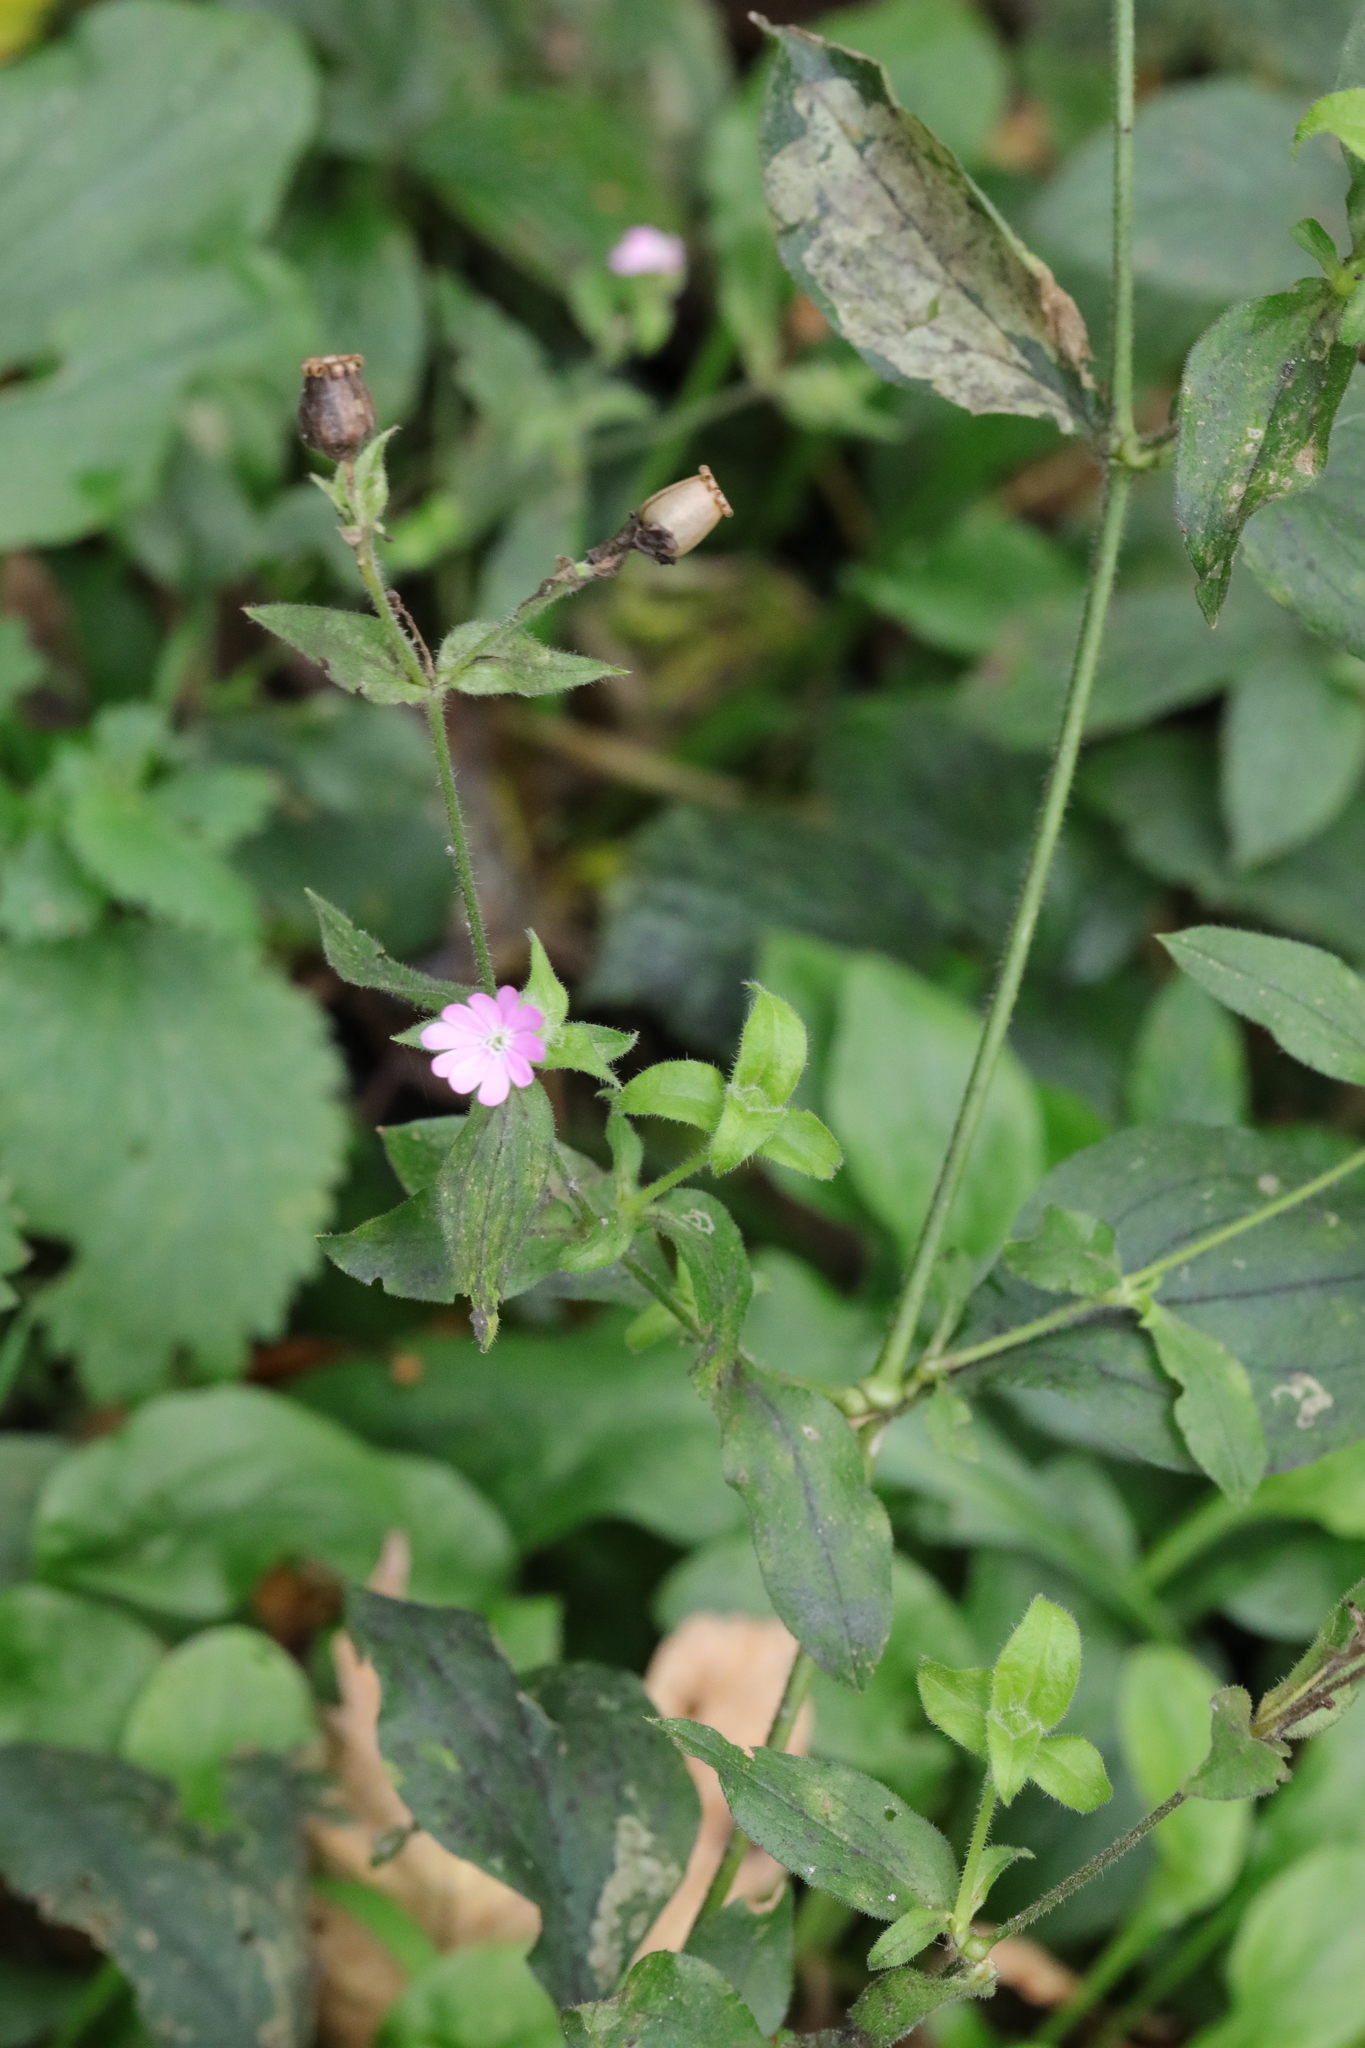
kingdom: Plantae
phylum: Tracheophyta
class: Magnoliopsida
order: Caryophyllales
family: Caryophyllaceae
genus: Silene
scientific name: Silene dioica
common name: Red campion
